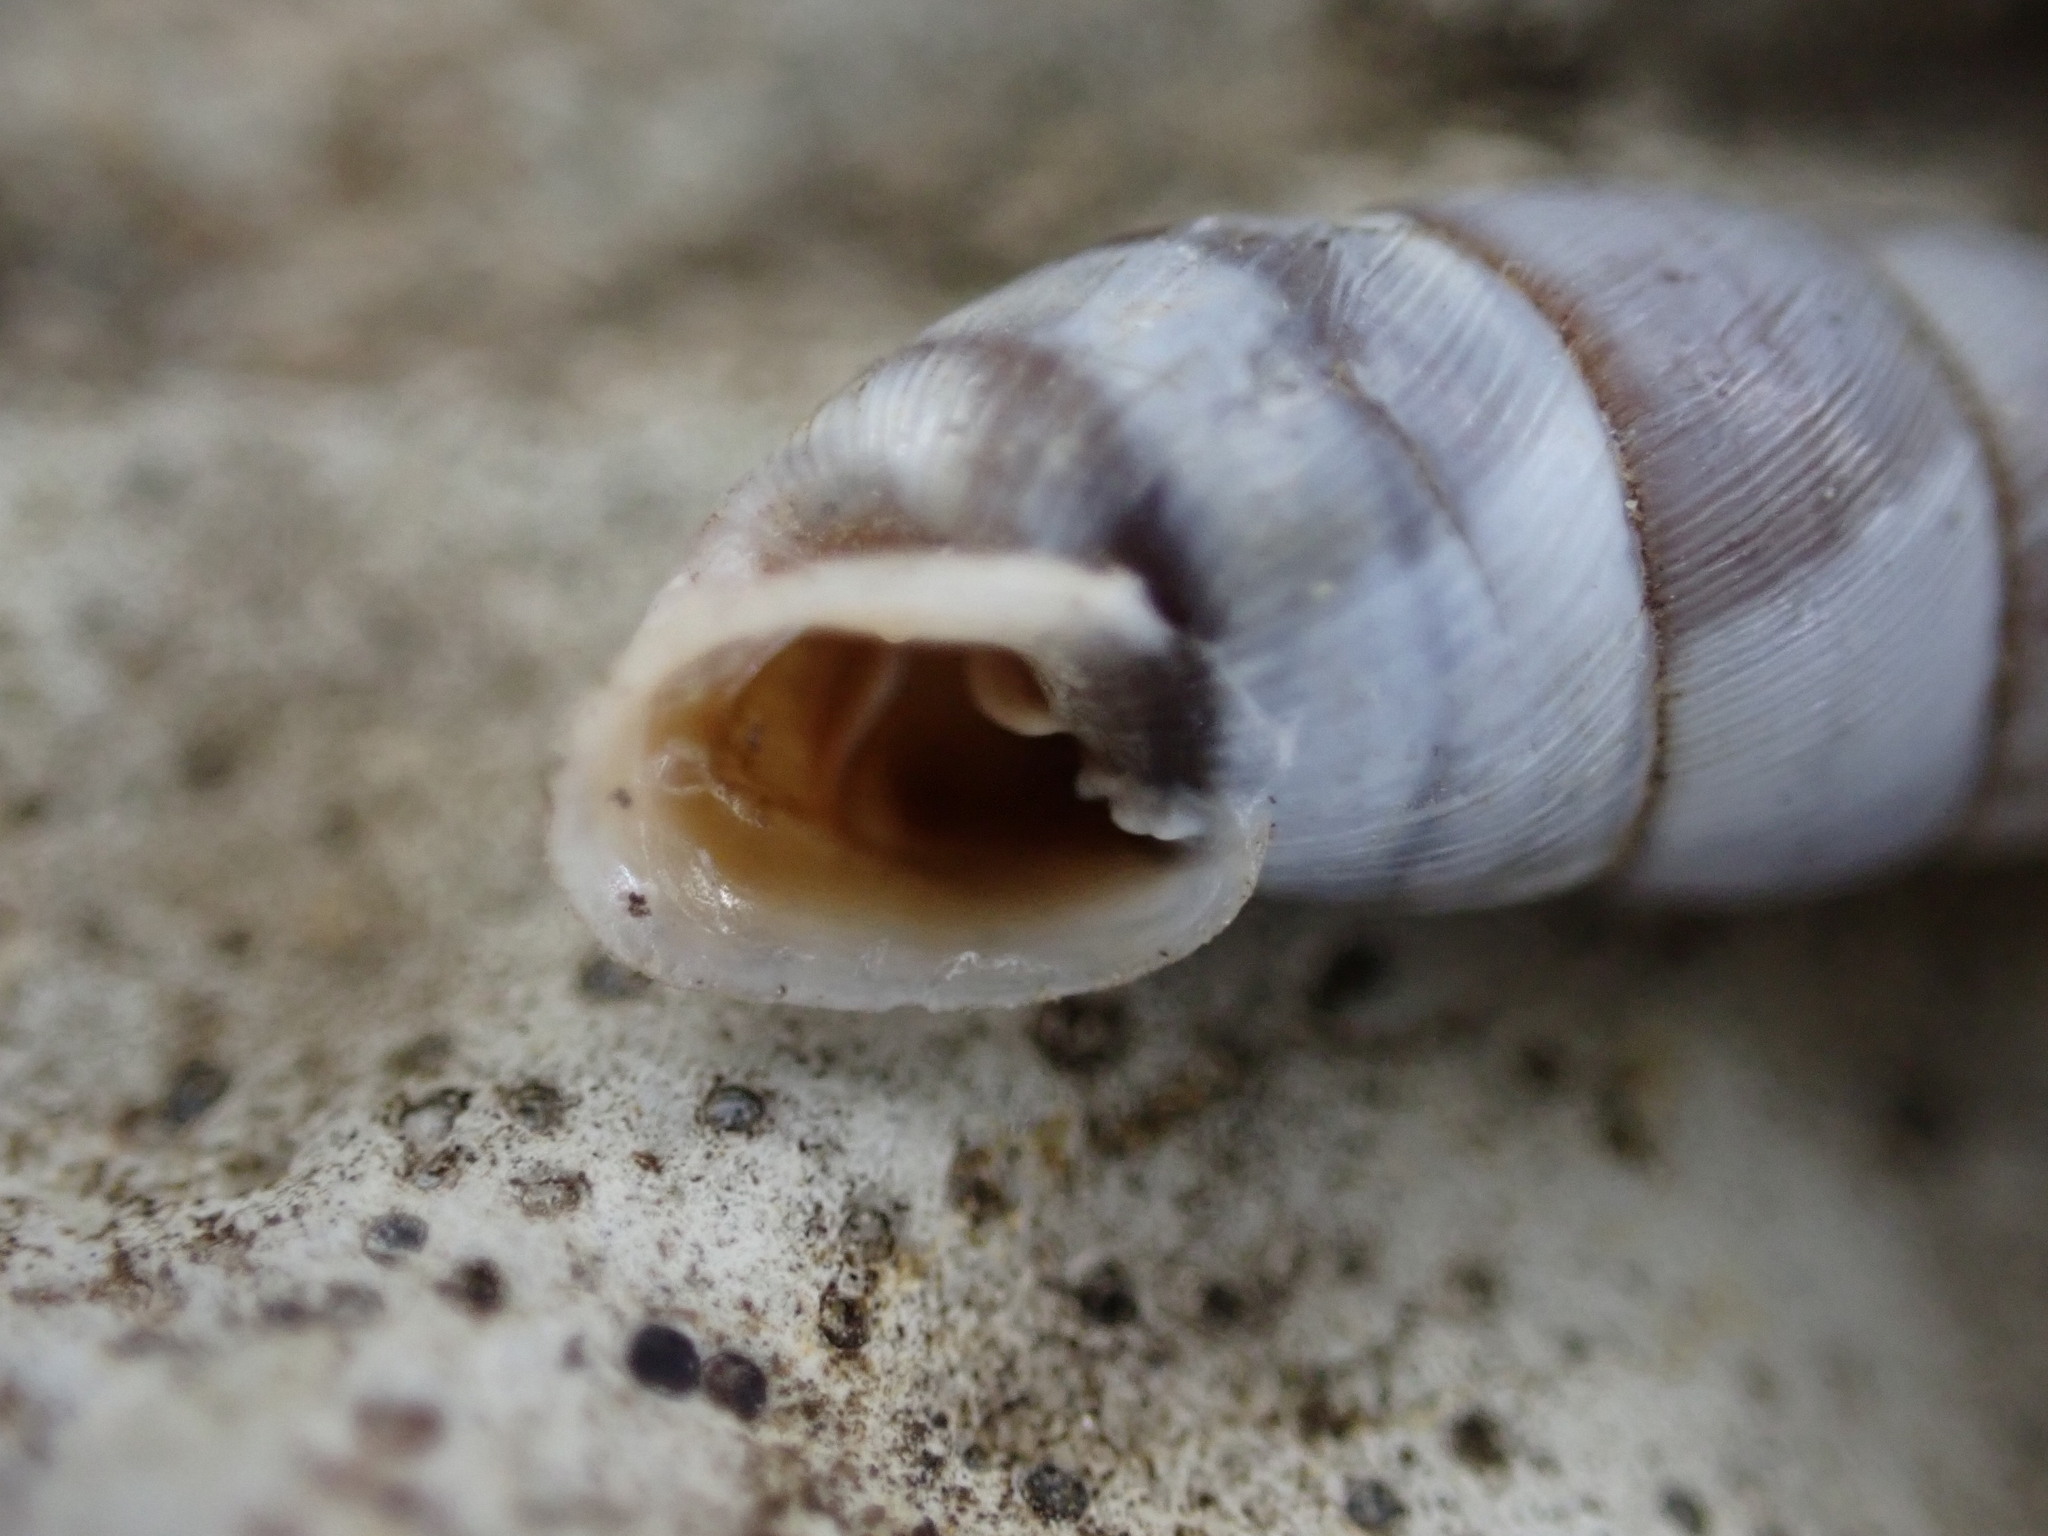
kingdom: Animalia
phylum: Mollusca
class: Gastropoda
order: Stylommatophora
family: Chondrinidae
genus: Solatopupa
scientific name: Solatopupa similis
